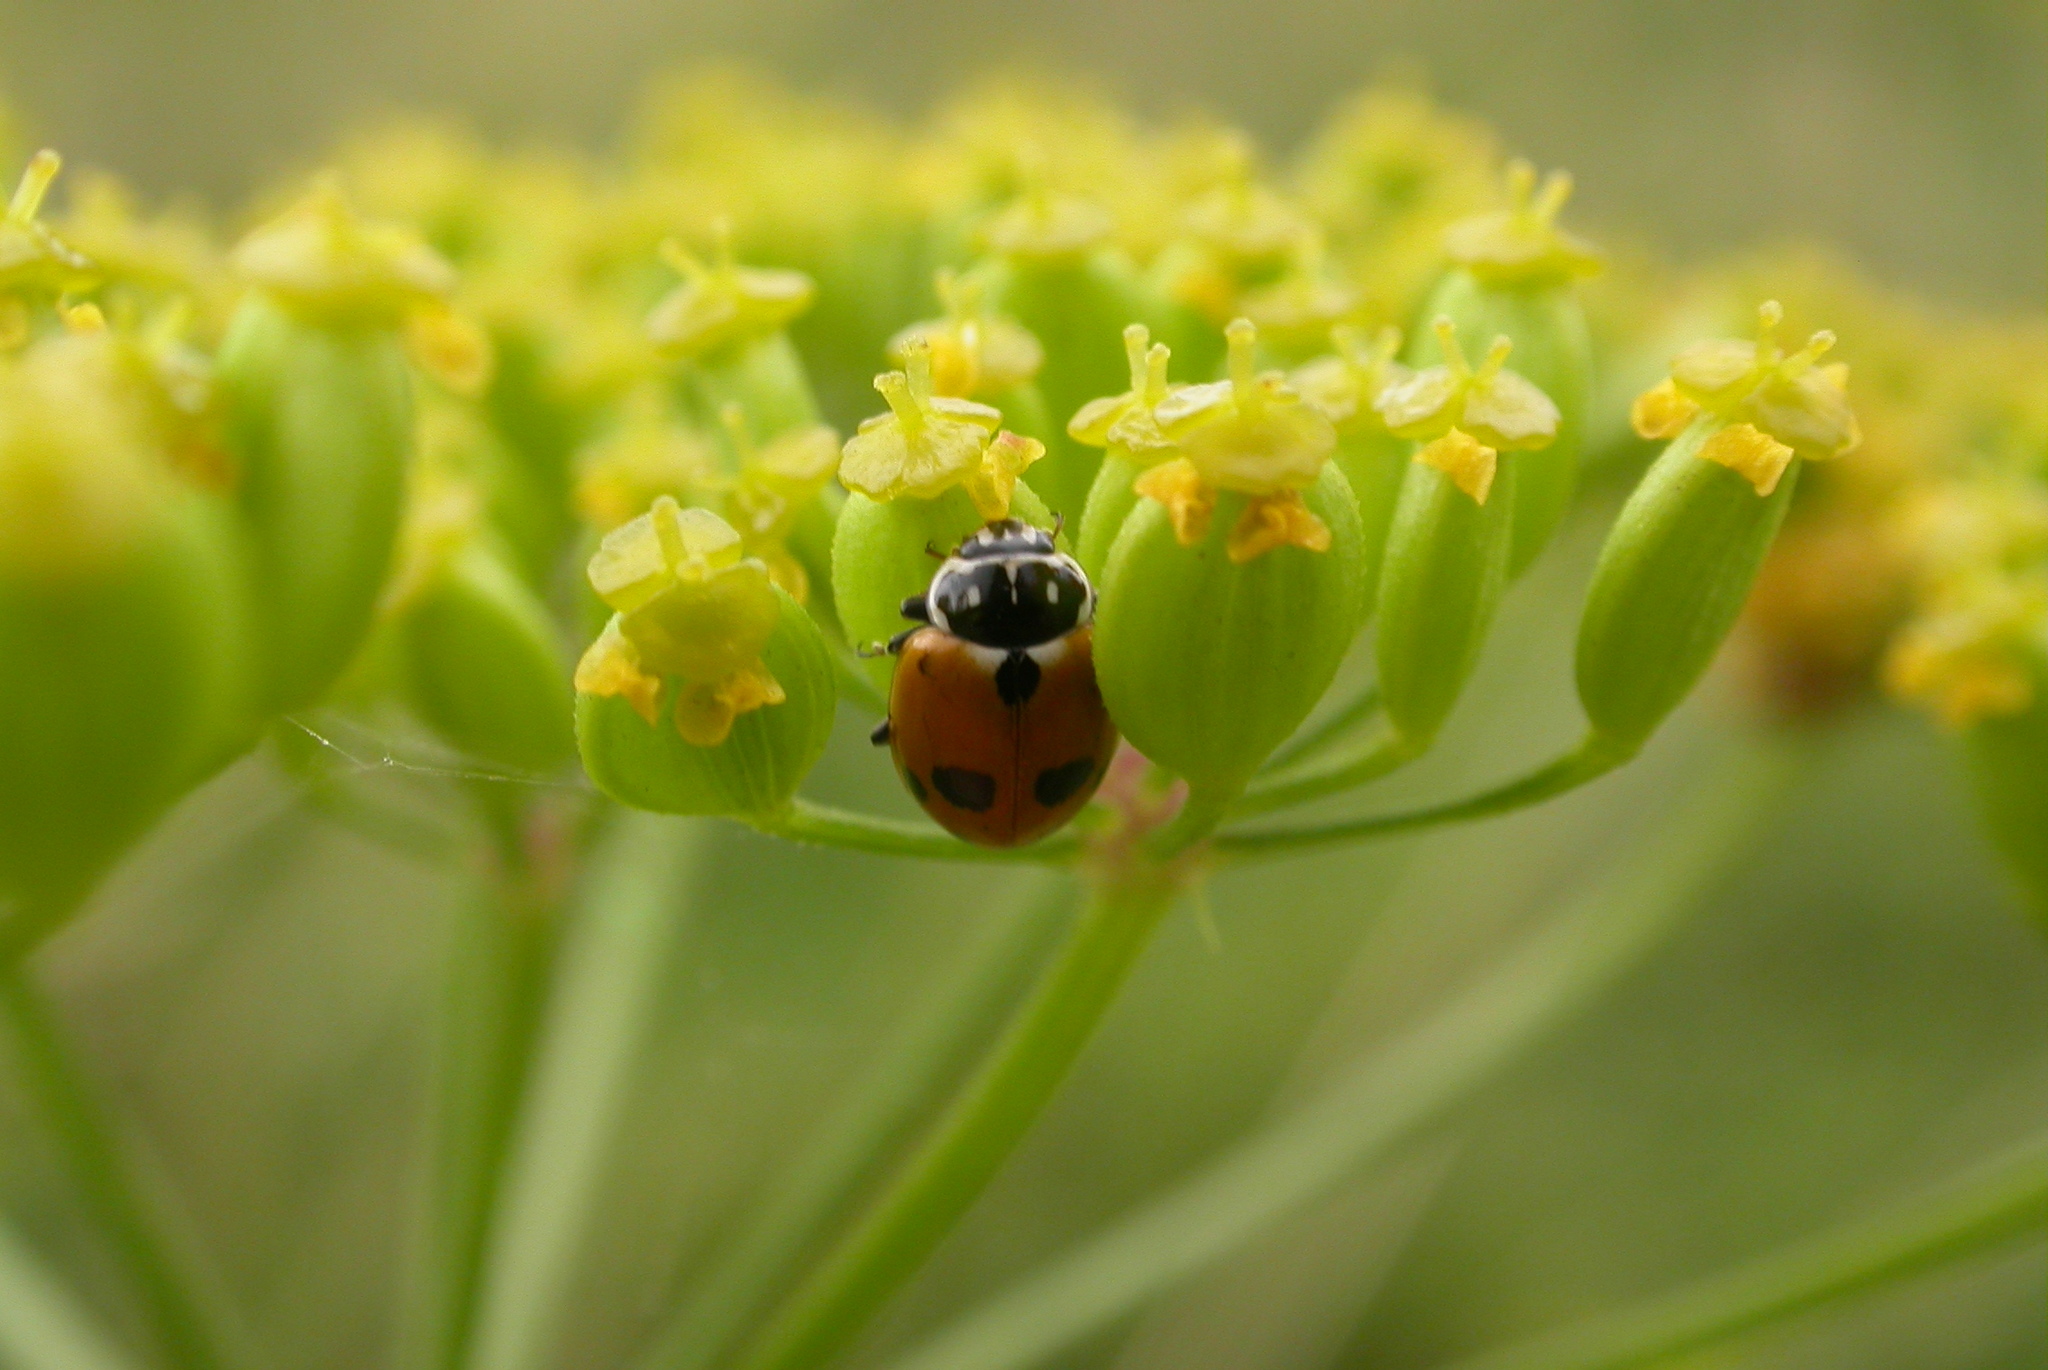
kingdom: Animalia
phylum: Arthropoda
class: Insecta
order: Coleoptera
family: Coccinellidae
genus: Hippodamia
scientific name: Hippodamia variegata
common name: Ladybird beetle
